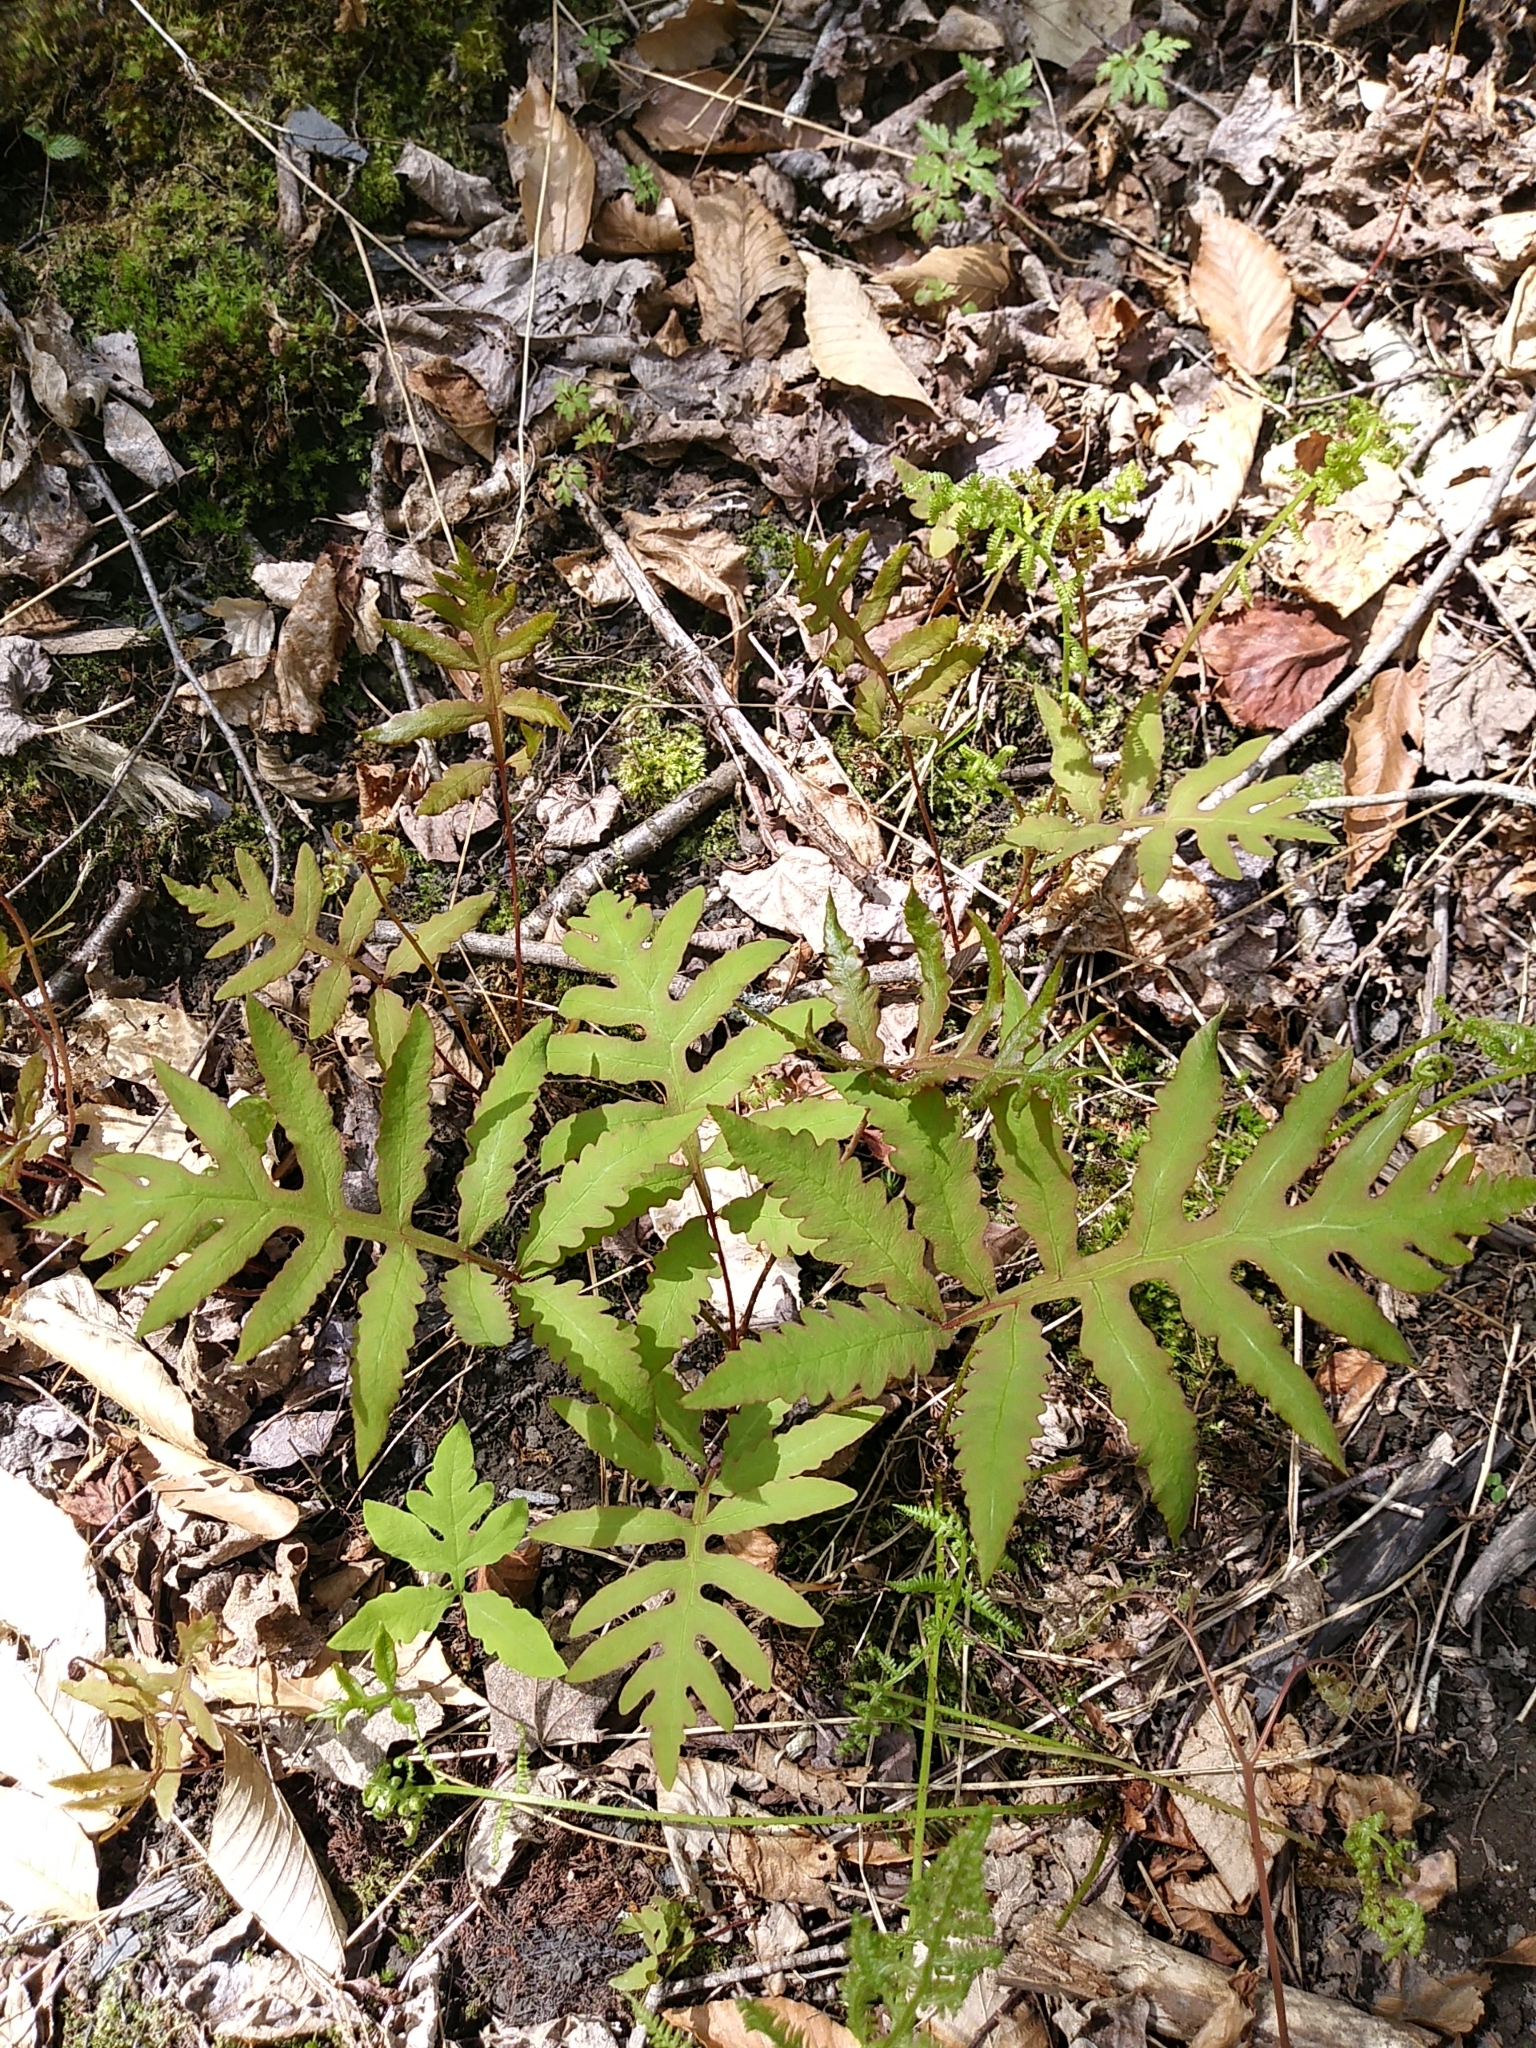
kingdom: Plantae
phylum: Tracheophyta
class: Polypodiopsida
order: Polypodiales
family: Onocleaceae
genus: Onoclea
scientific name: Onoclea sensibilis
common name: Sensitive fern
